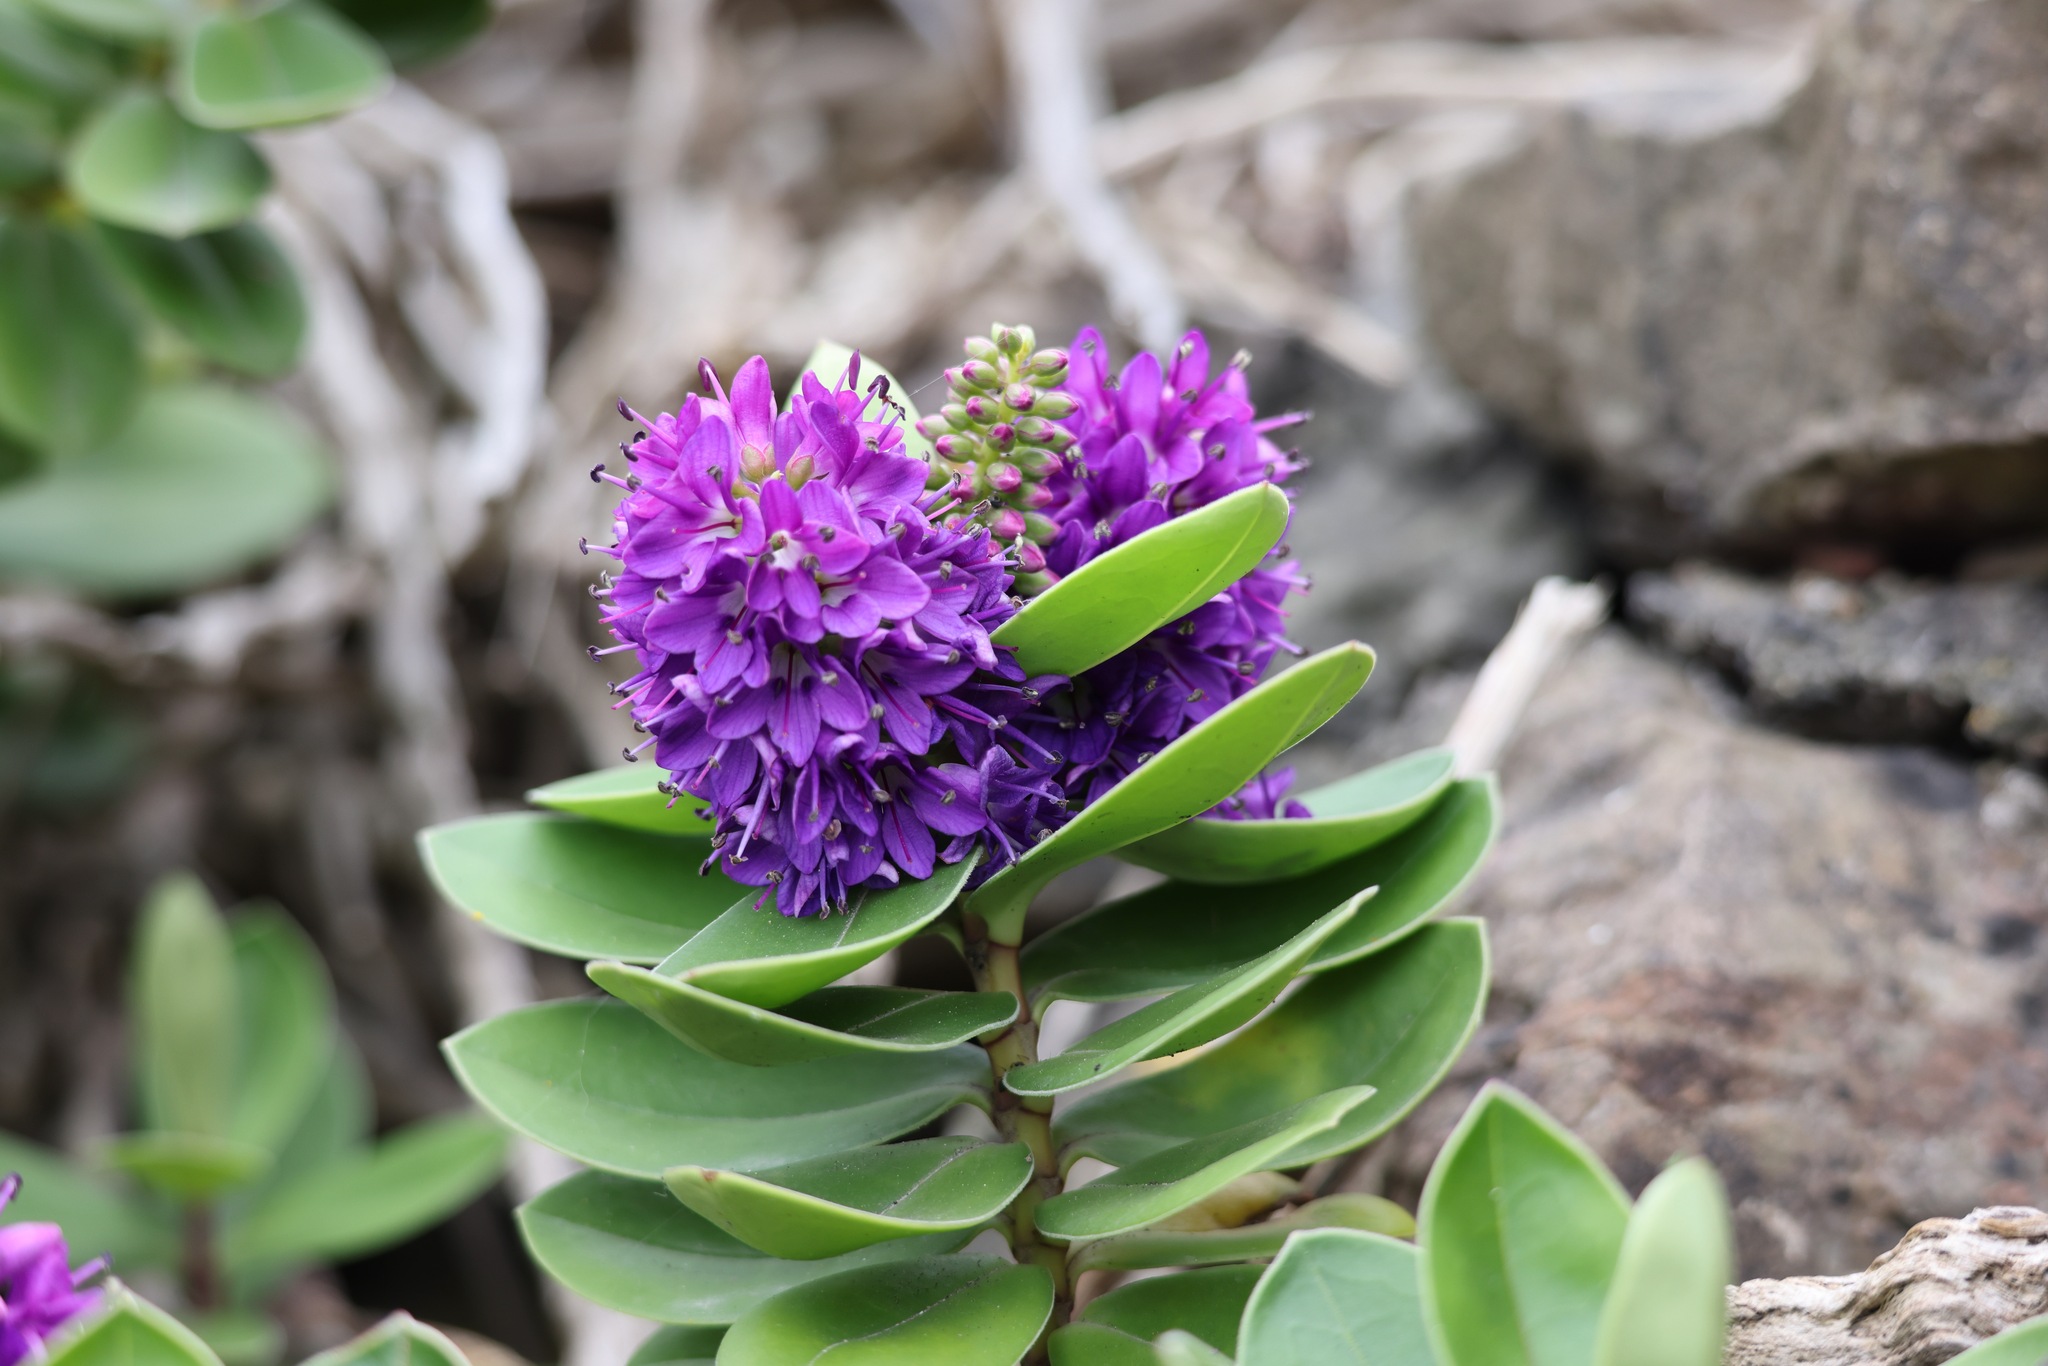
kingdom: Plantae
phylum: Tracheophyta
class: Magnoliopsida
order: Lamiales
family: Plantaginaceae
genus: Veronica
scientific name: Veronica franciscana
